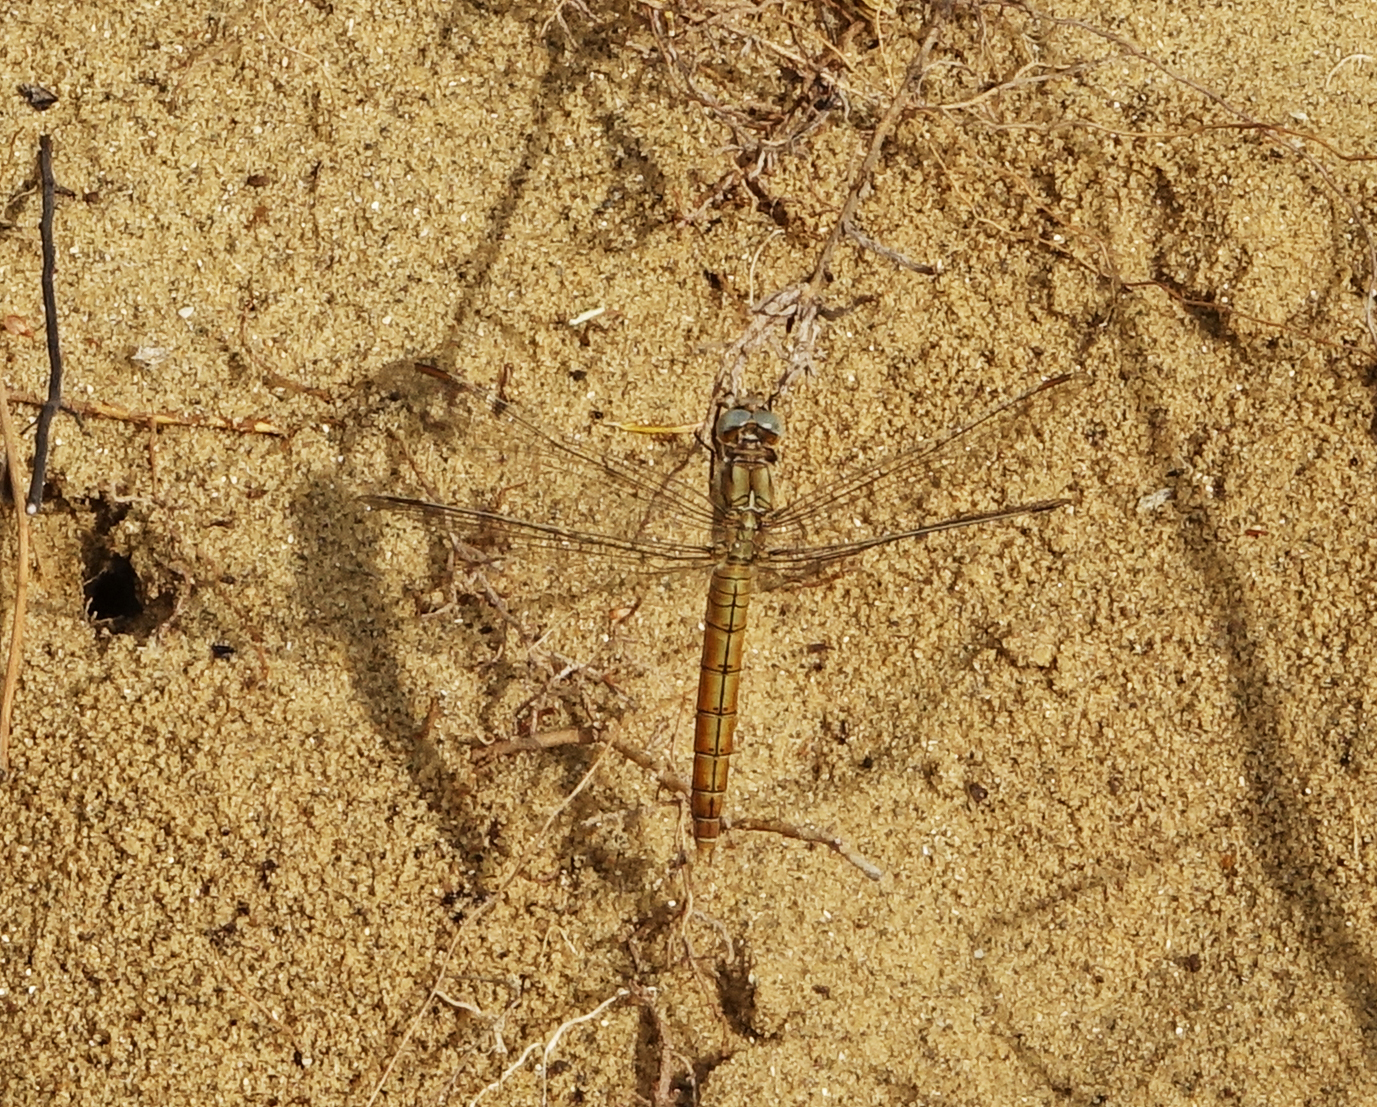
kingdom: Animalia
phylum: Arthropoda
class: Insecta
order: Odonata
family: Libellulidae
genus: Orthetrum
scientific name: Orthetrum brunneum
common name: Southern skimmer
